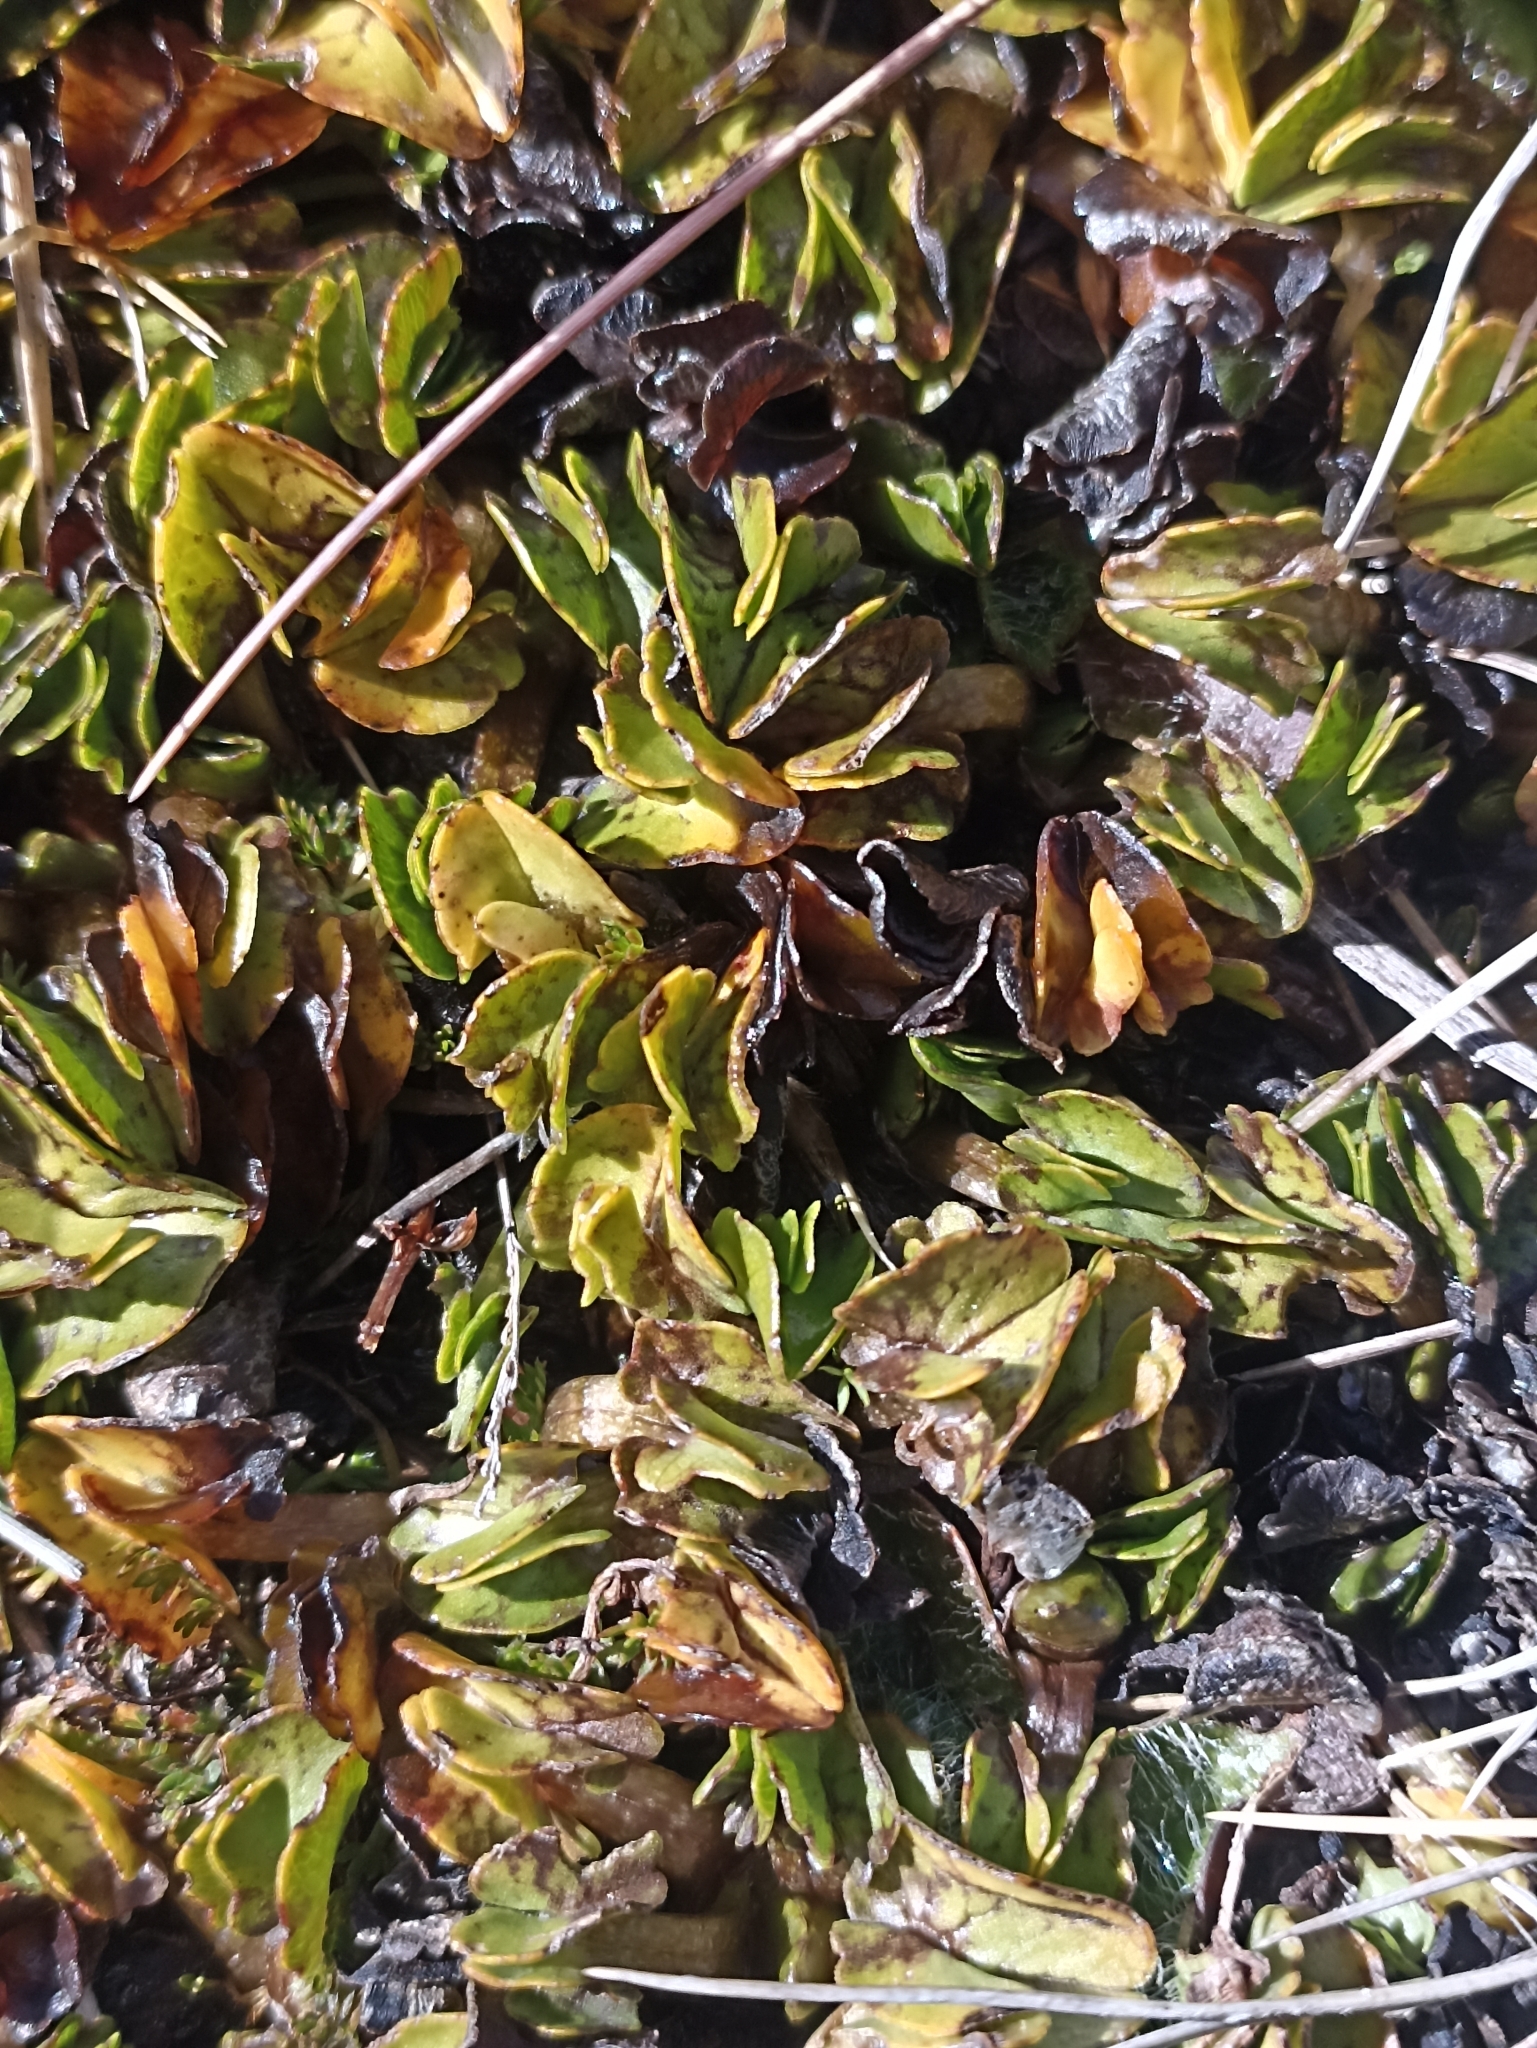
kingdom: Plantae
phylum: Tracheophyta
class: Magnoliopsida
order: Ranunculales
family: Ranunculaceae
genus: Caltha
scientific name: Caltha obtusa
